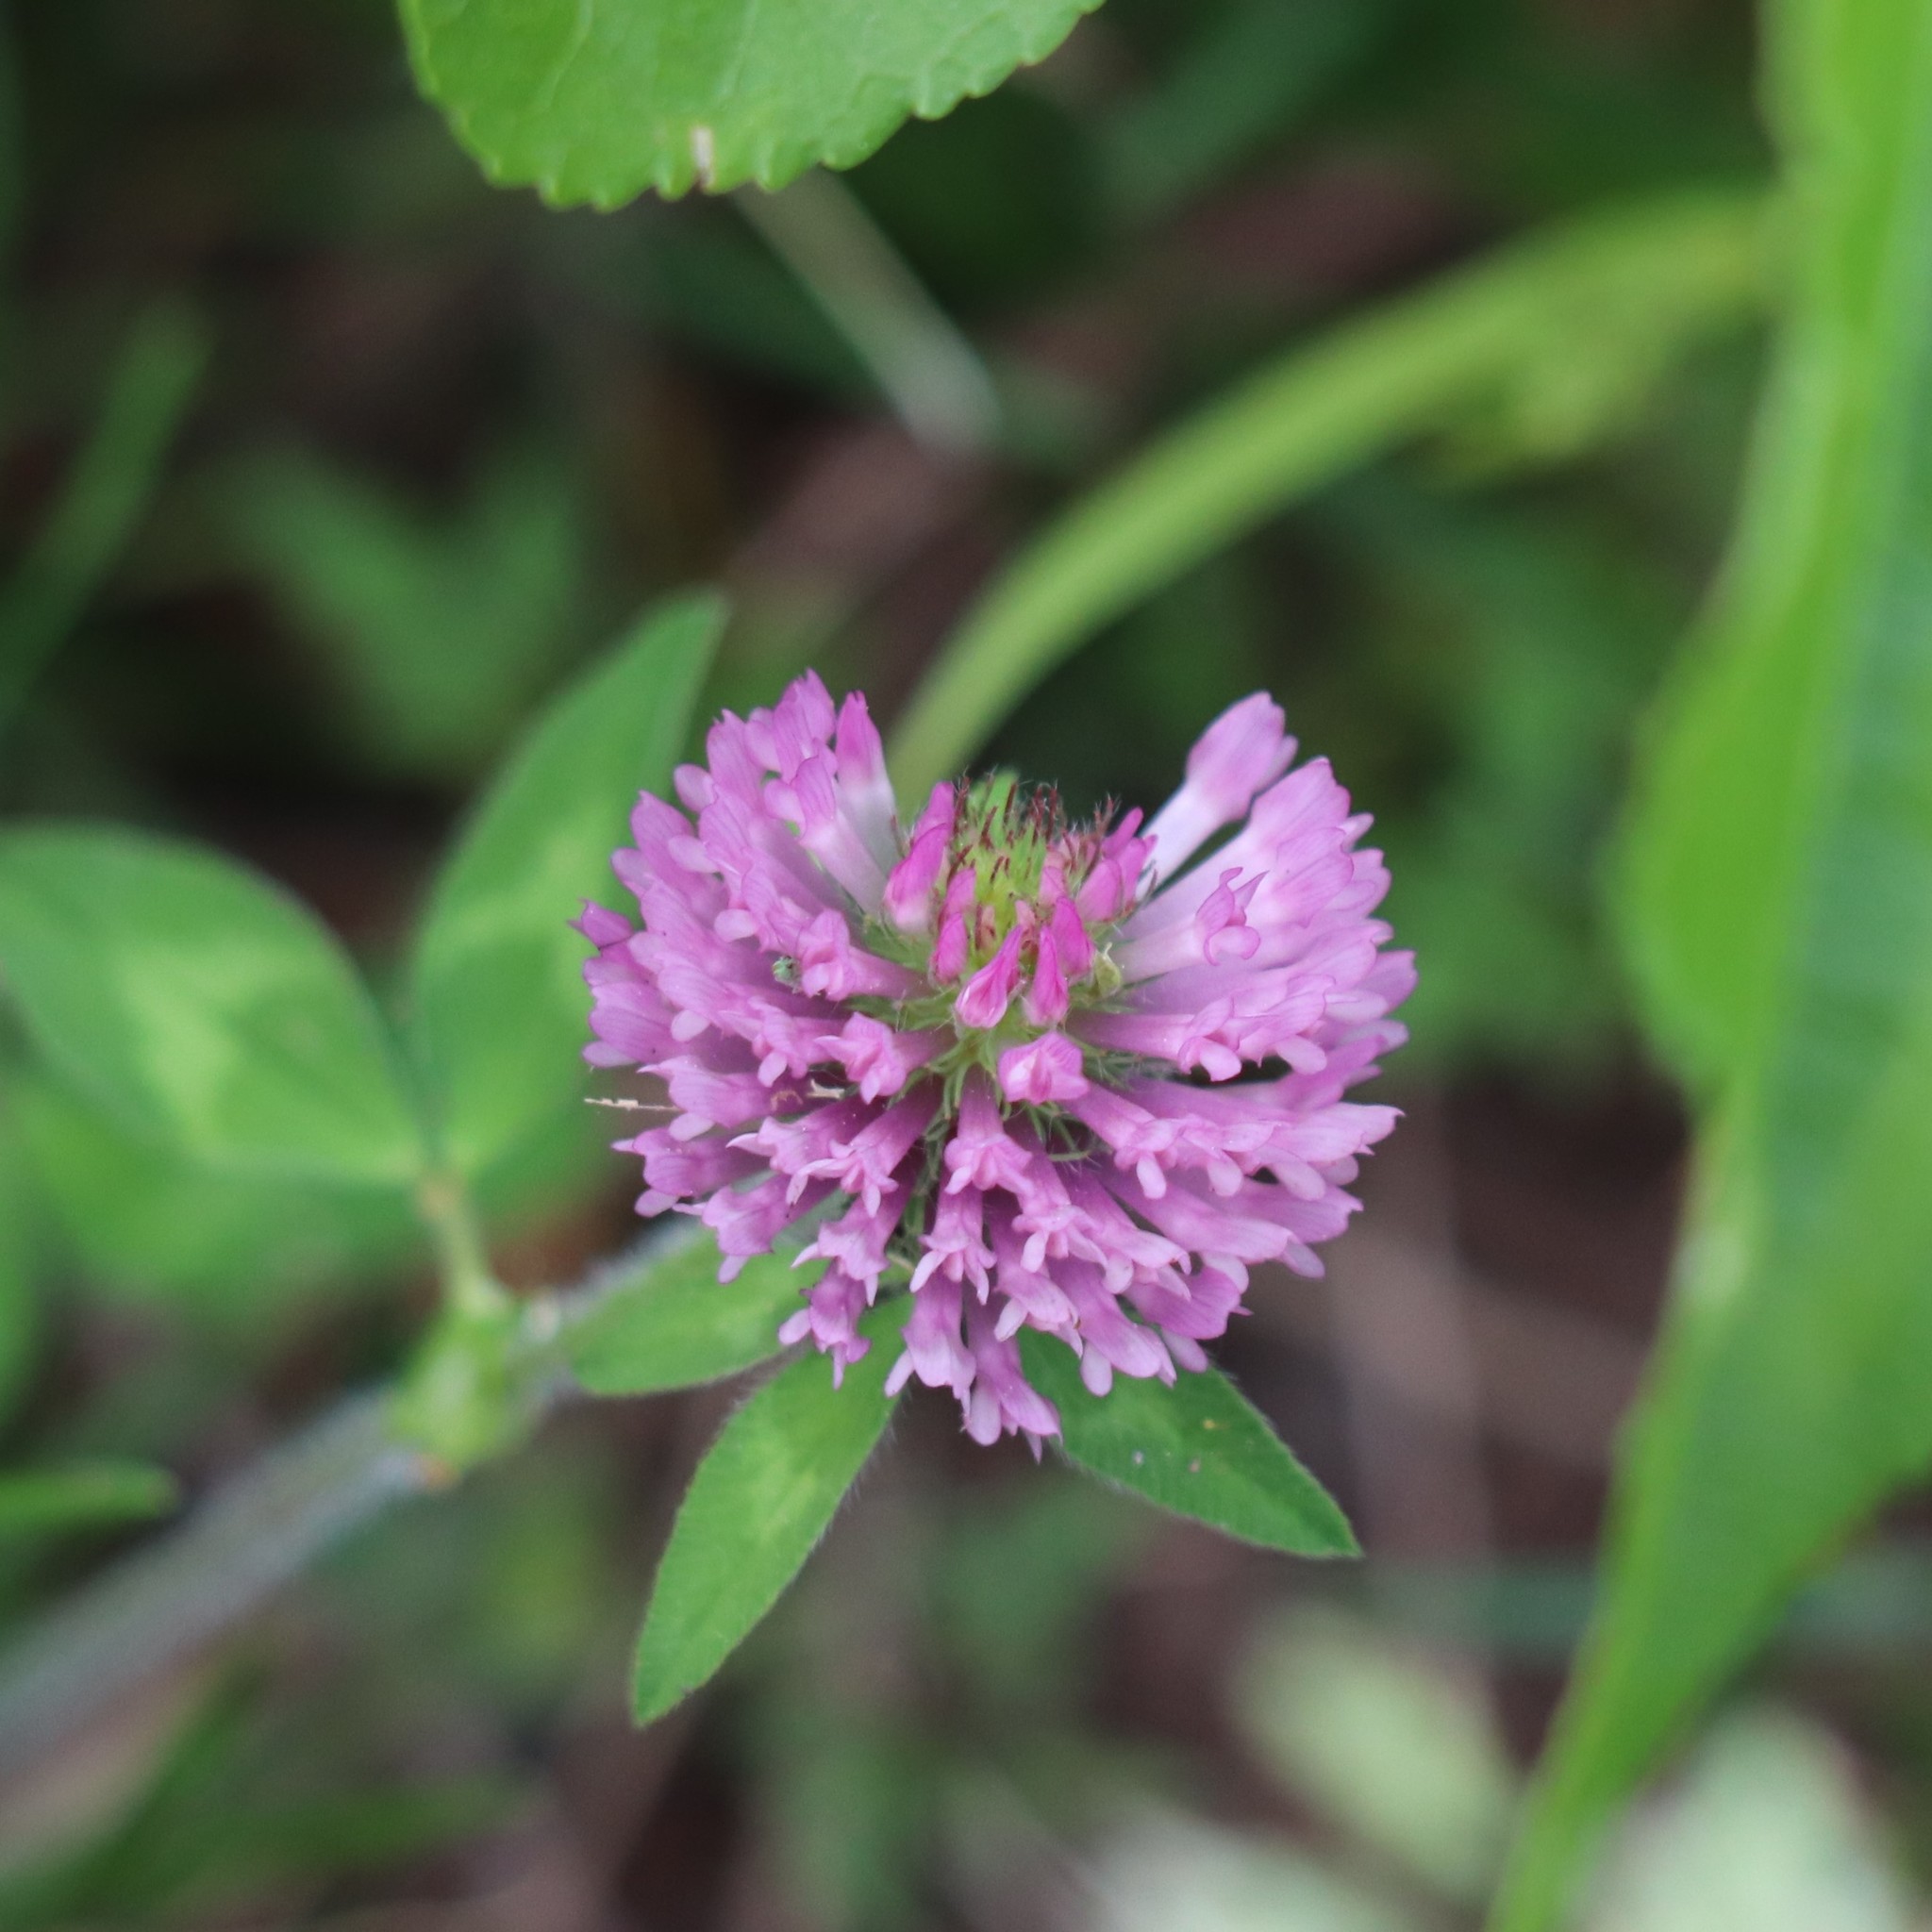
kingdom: Plantae
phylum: Tracheophyta
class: Magnoliopsida
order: Fabales
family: Fabaceae
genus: Trifolium
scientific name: Trifolium pratense
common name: Red clover
